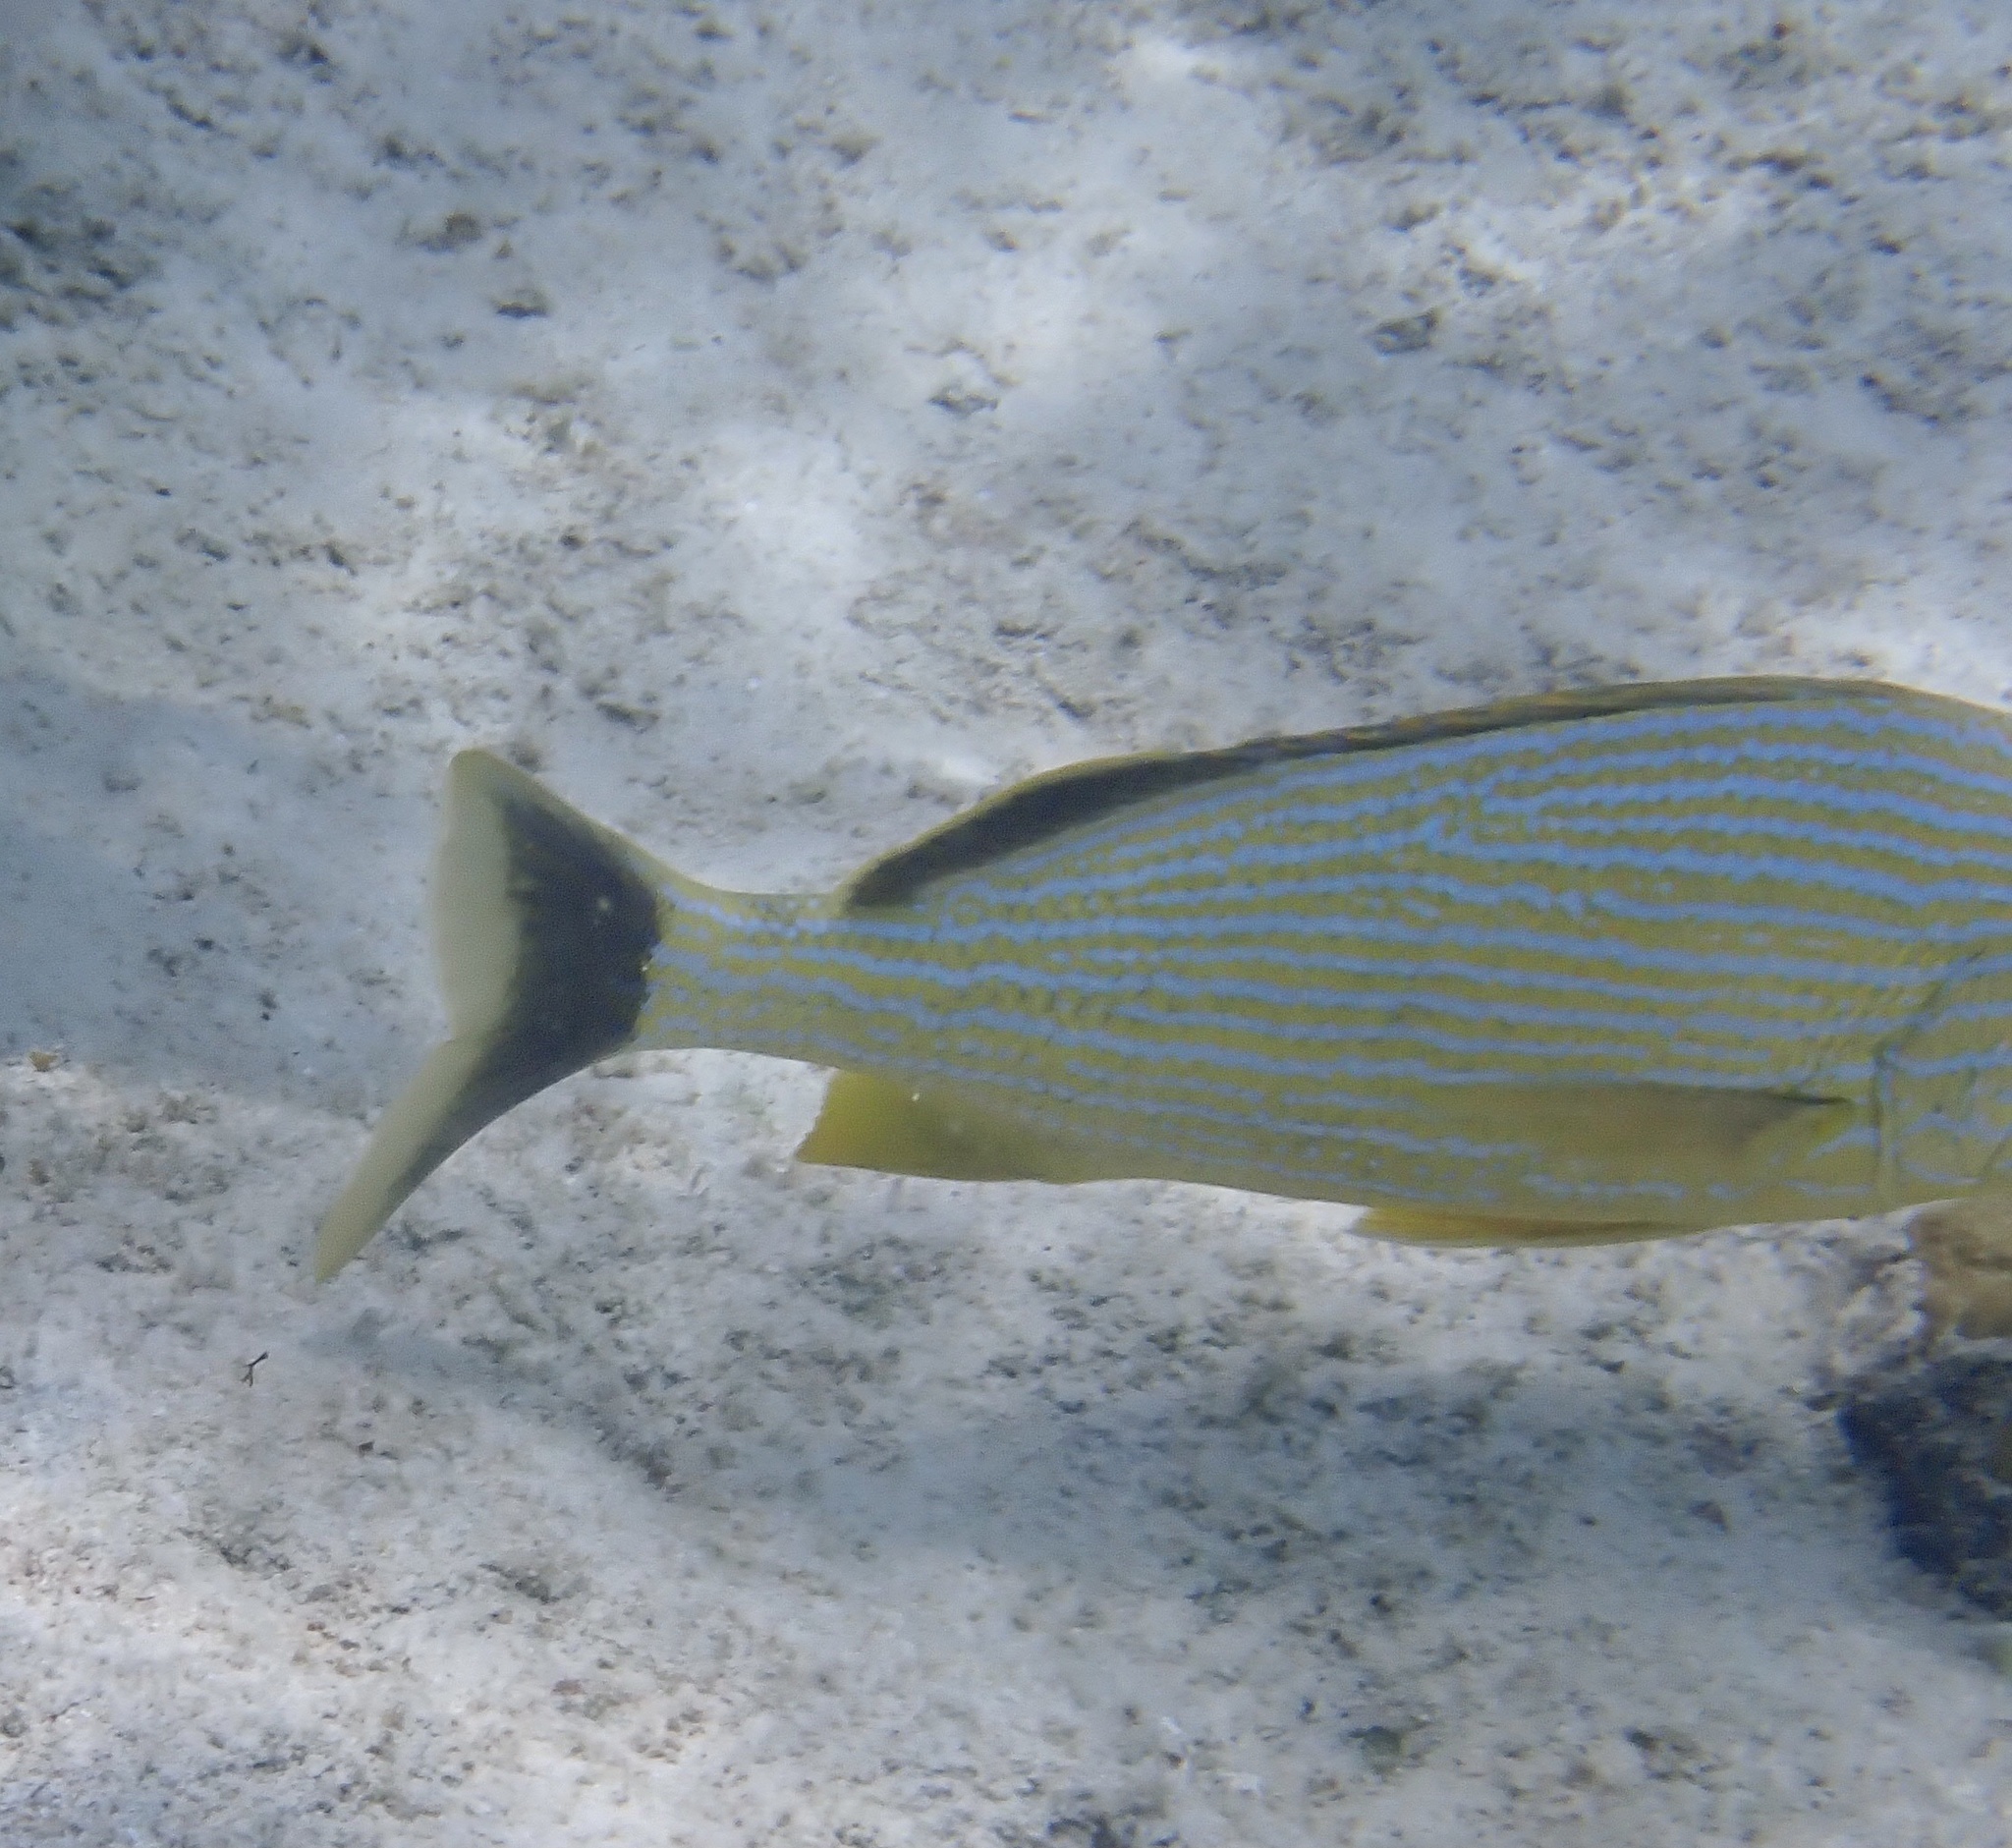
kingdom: Animalia
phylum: Chordata
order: Perciformes
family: Haemulidae
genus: Haemulon
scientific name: Haemulon sciurus
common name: Bluestriped grunt
